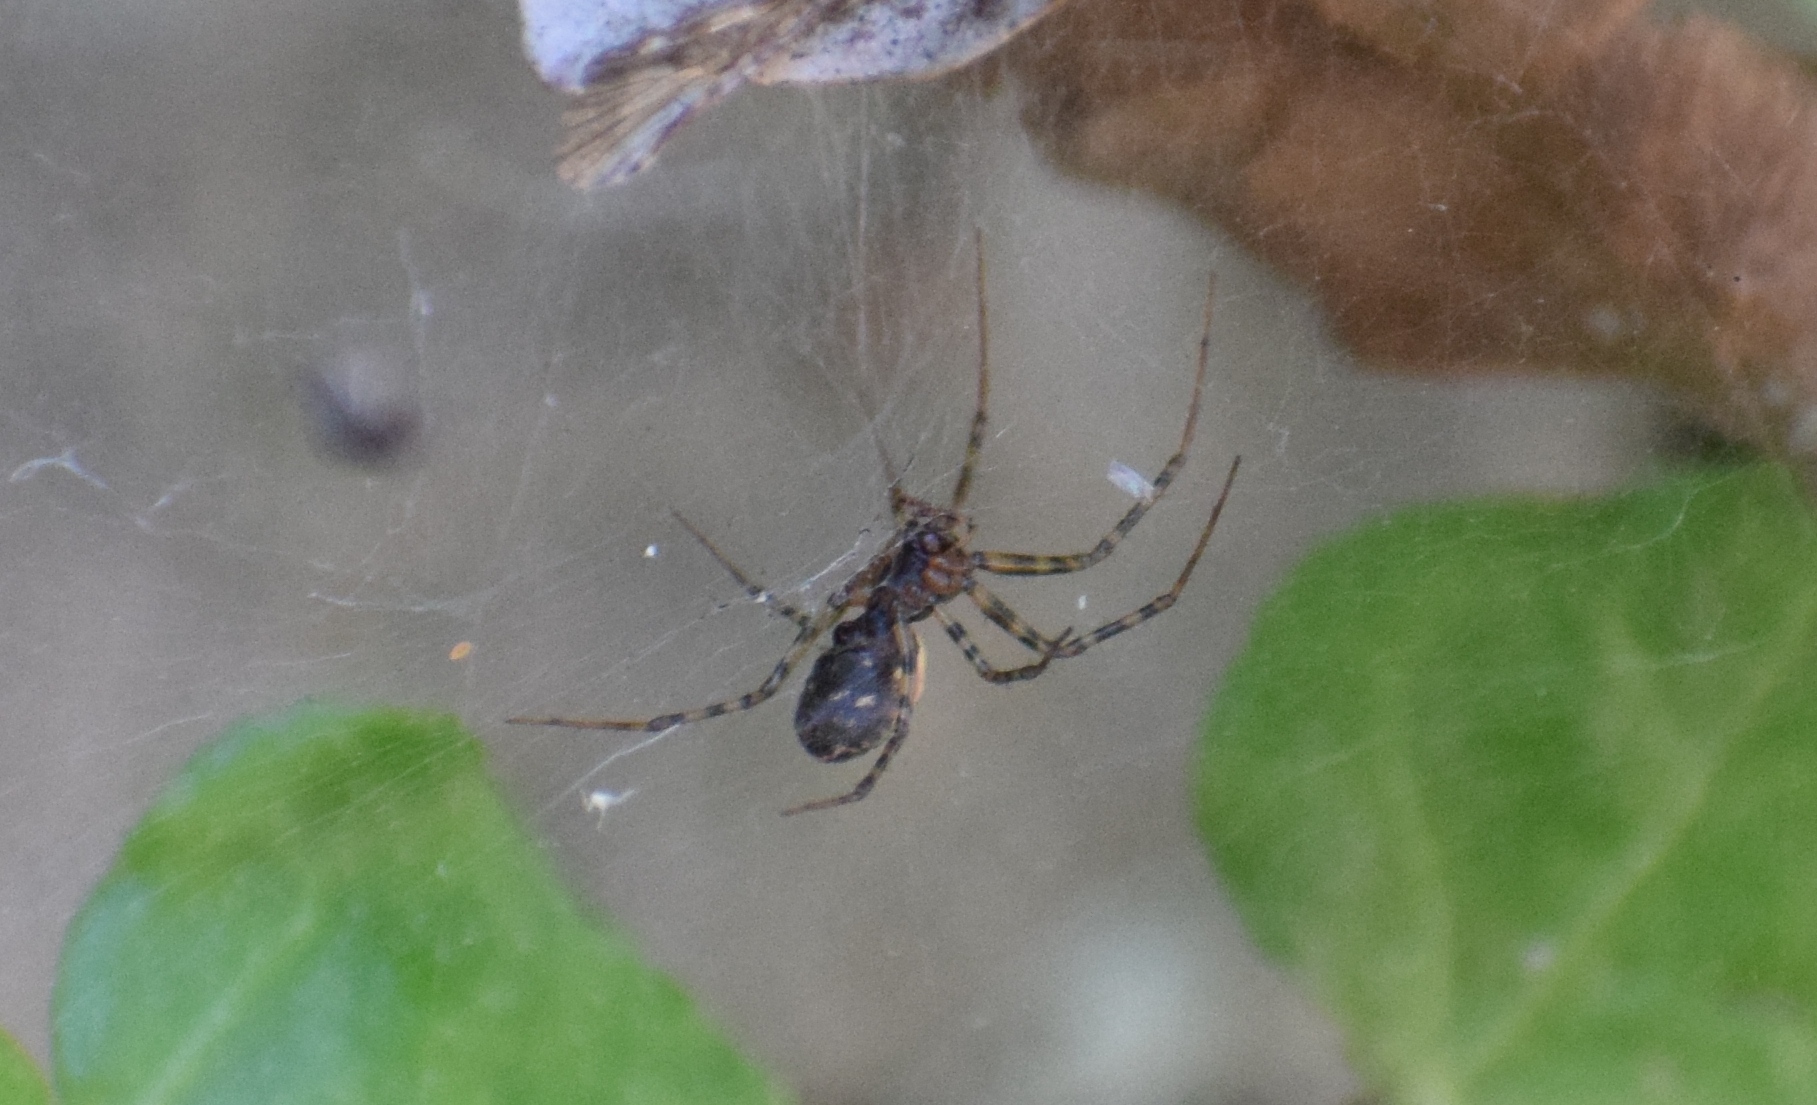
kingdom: Animalia
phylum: Arthropoda
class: Arachnida
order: Araneae
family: Linyphiidae
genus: Neriene
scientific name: Neriene clathrata
